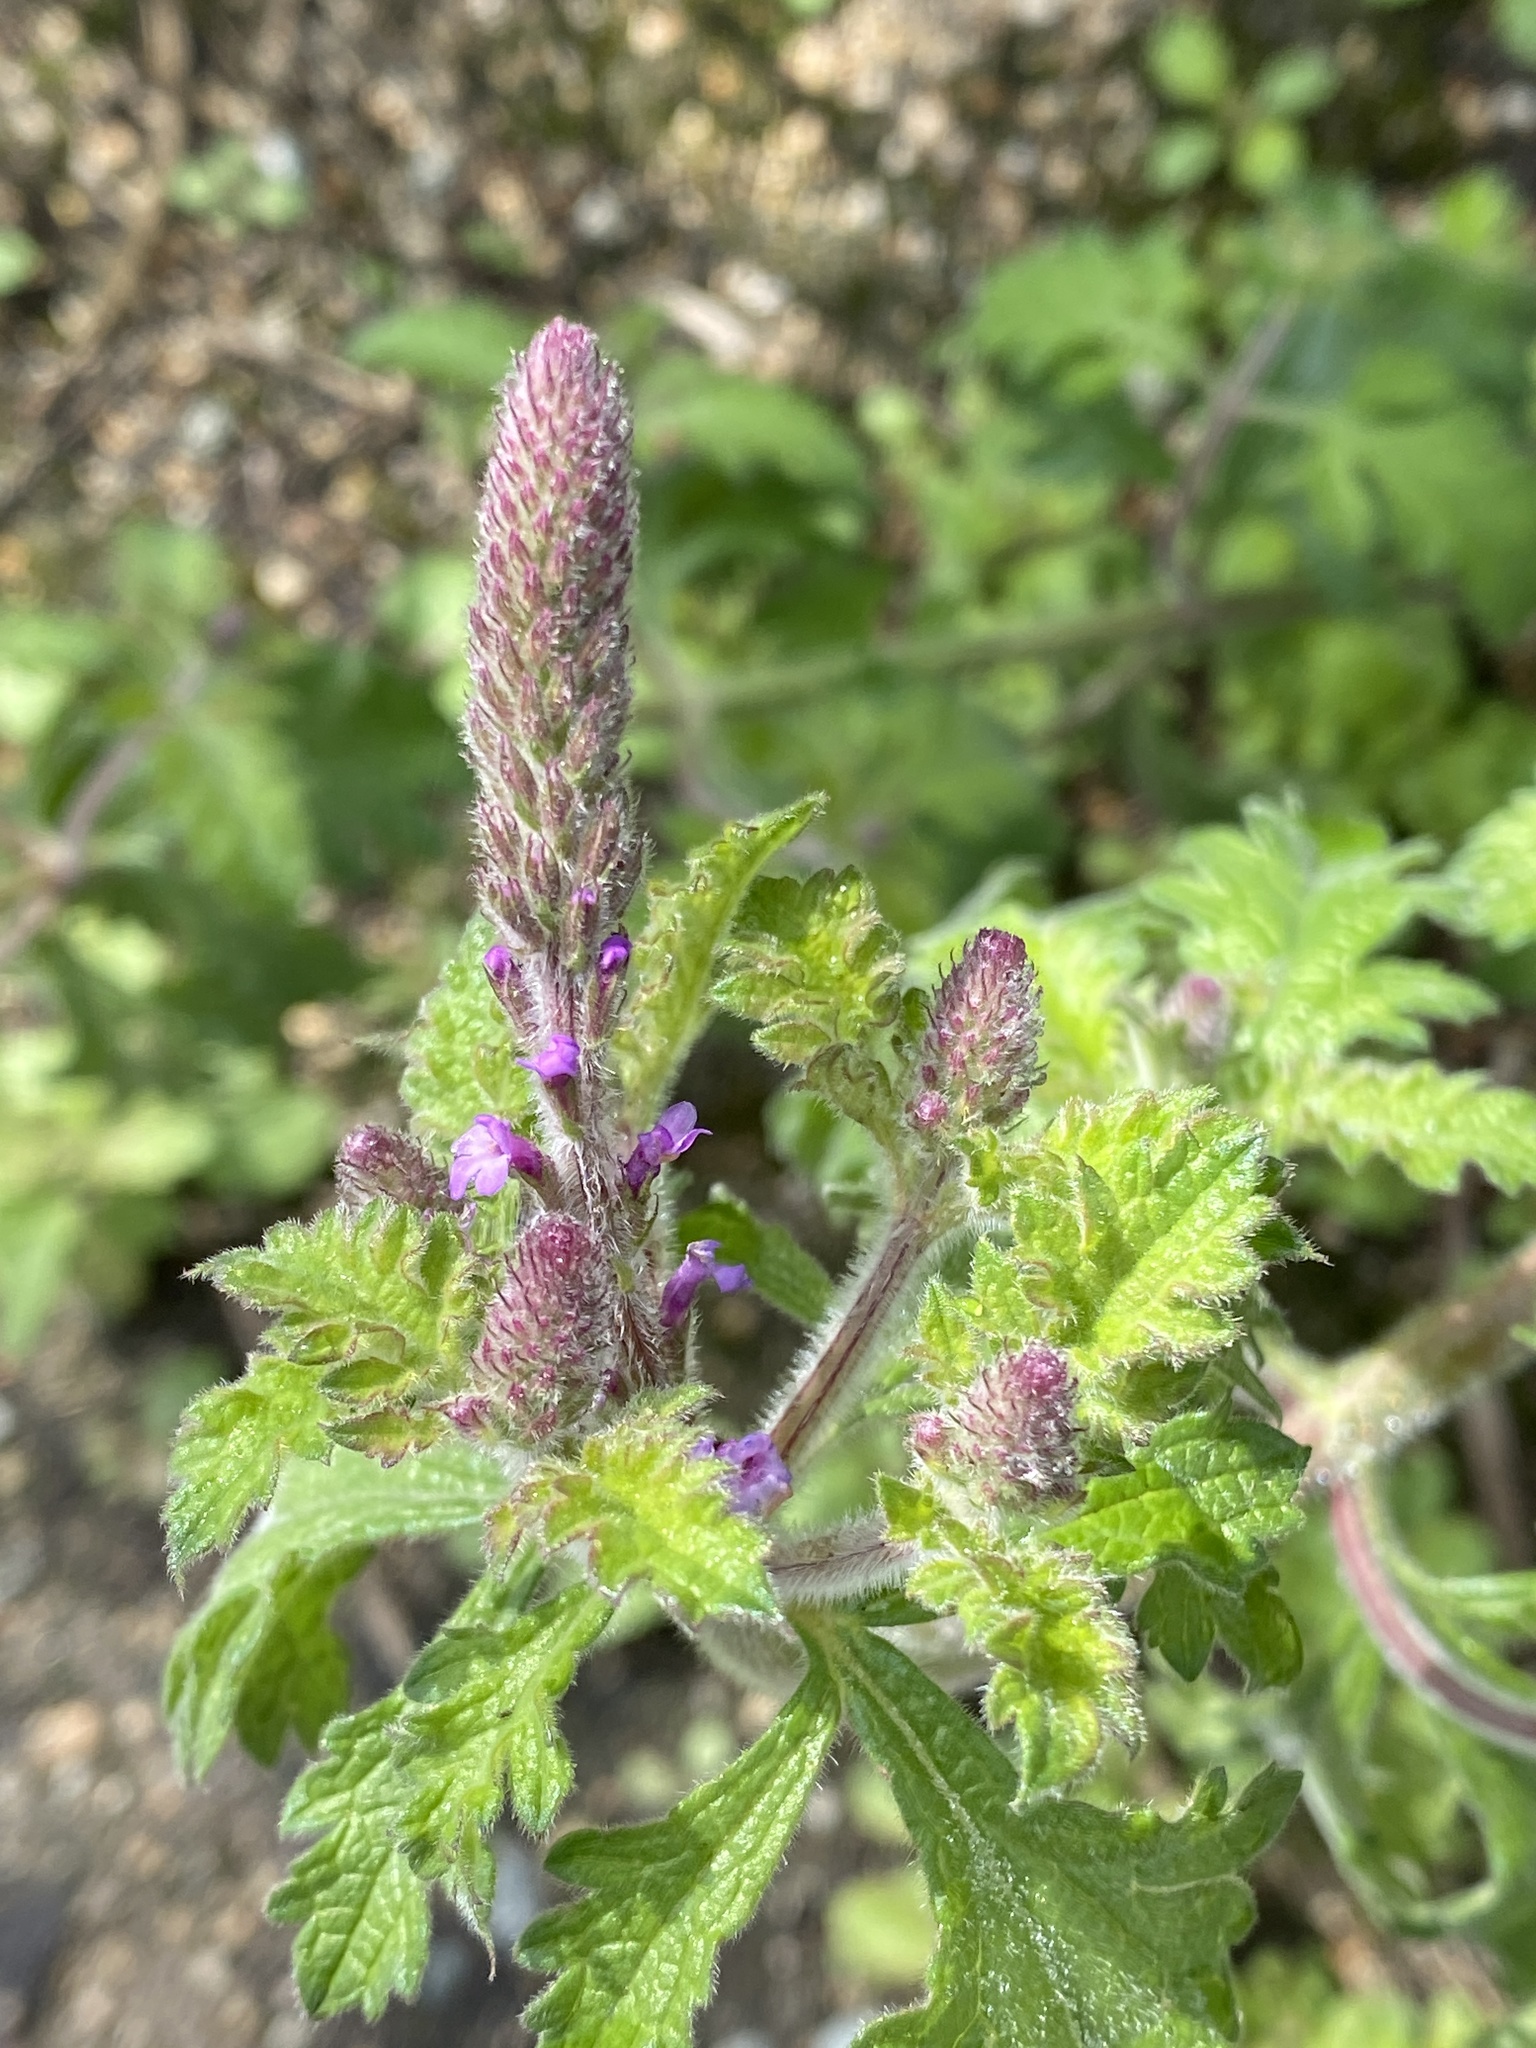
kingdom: Plantae
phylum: Tracheophyta
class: Magnoliopsida
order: Lamiales
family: Verbenaceae
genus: Verbena
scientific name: Verbena lasiostachys
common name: Vervain
